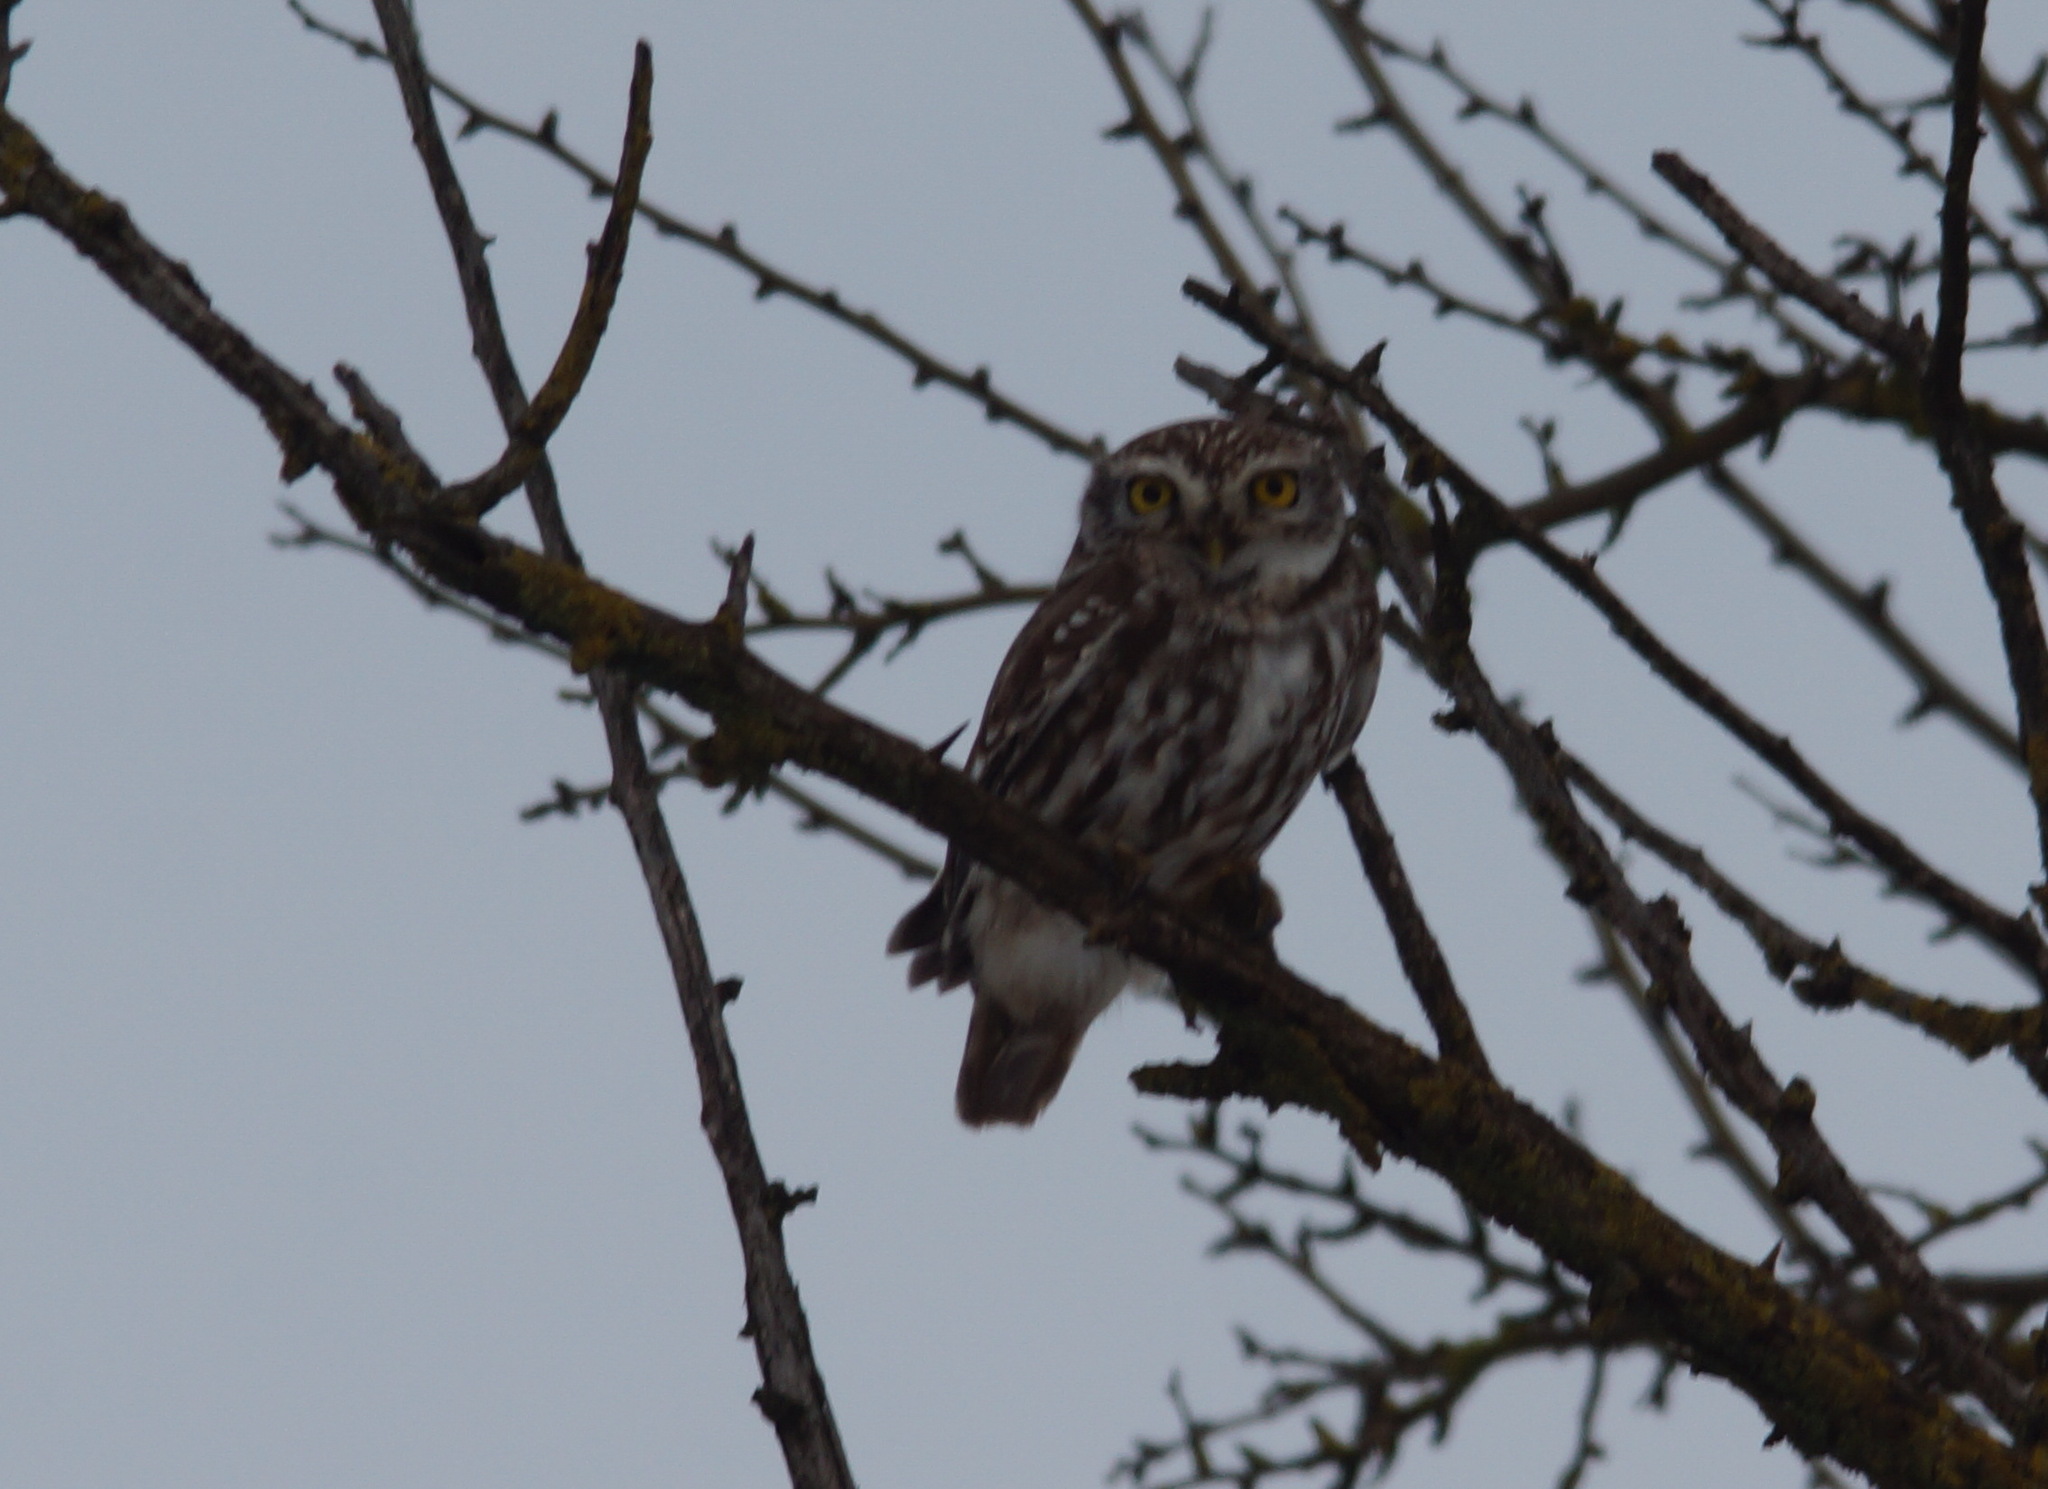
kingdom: Animalia
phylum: Chordata
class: Aves
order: Strigiformes
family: Strigidae
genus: Athene
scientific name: Athene noctua
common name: Little owl
